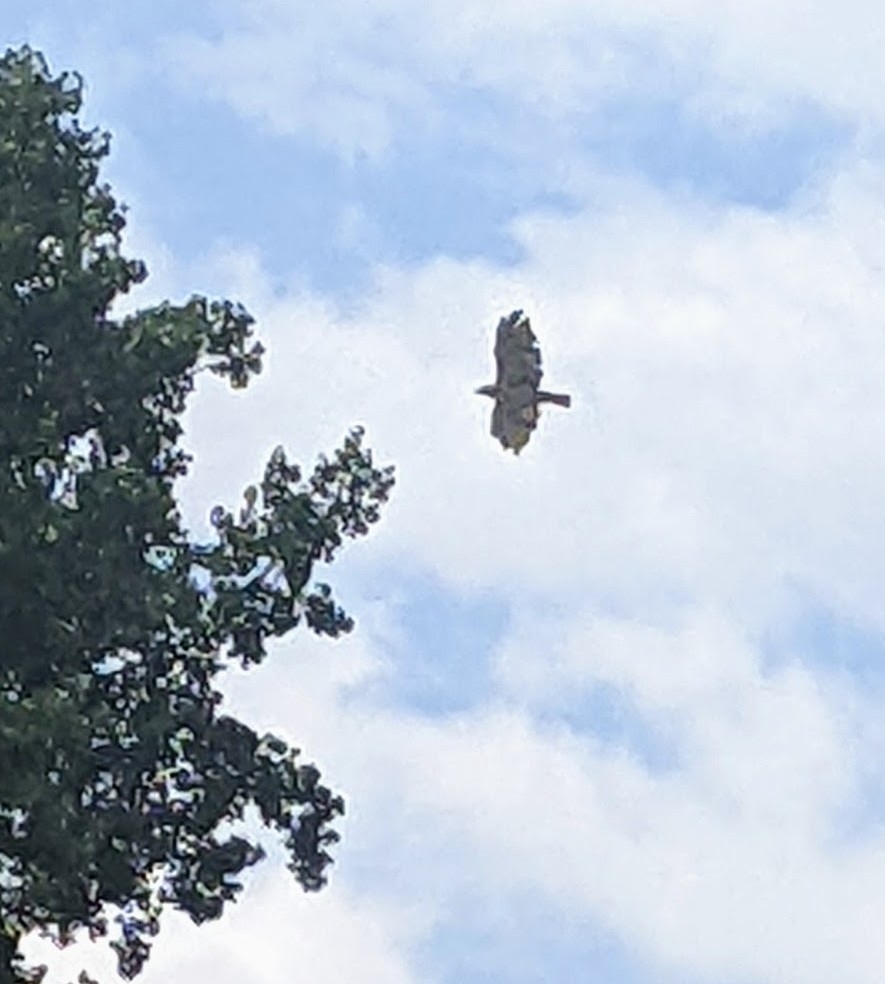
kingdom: Animalia
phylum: Chordata
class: Aves
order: Accipitriformes
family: Accipitridae
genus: Buteo
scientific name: Buteo jamaicensis
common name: Red-tailed hawk
